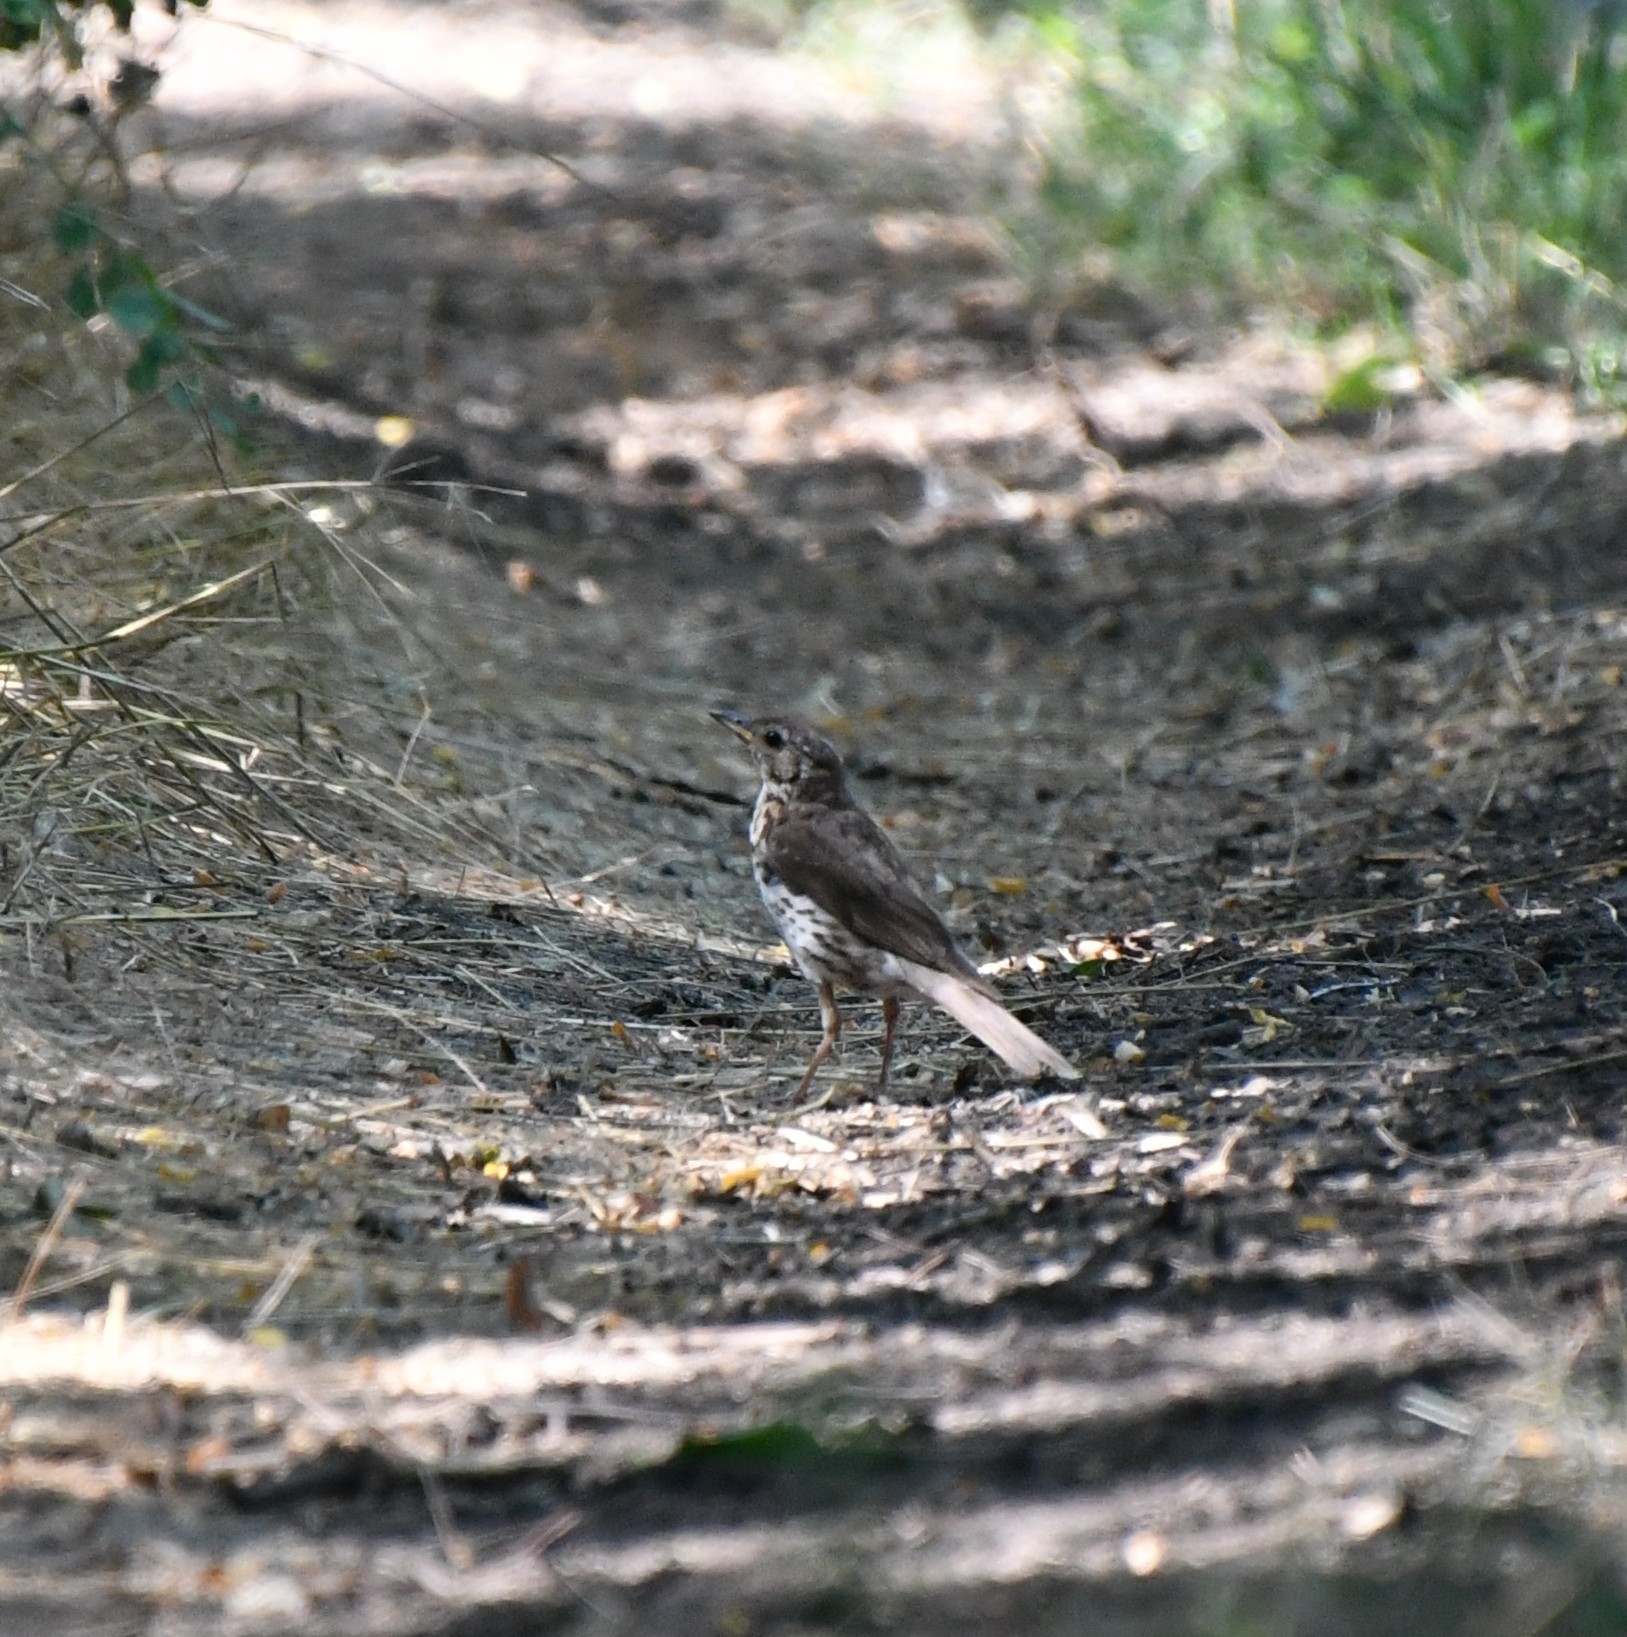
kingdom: Animalia
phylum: Chordata
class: Aves
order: Passeriformes
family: Turdidae
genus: Turdus
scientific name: Turdus philomelos
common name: Song thrush
